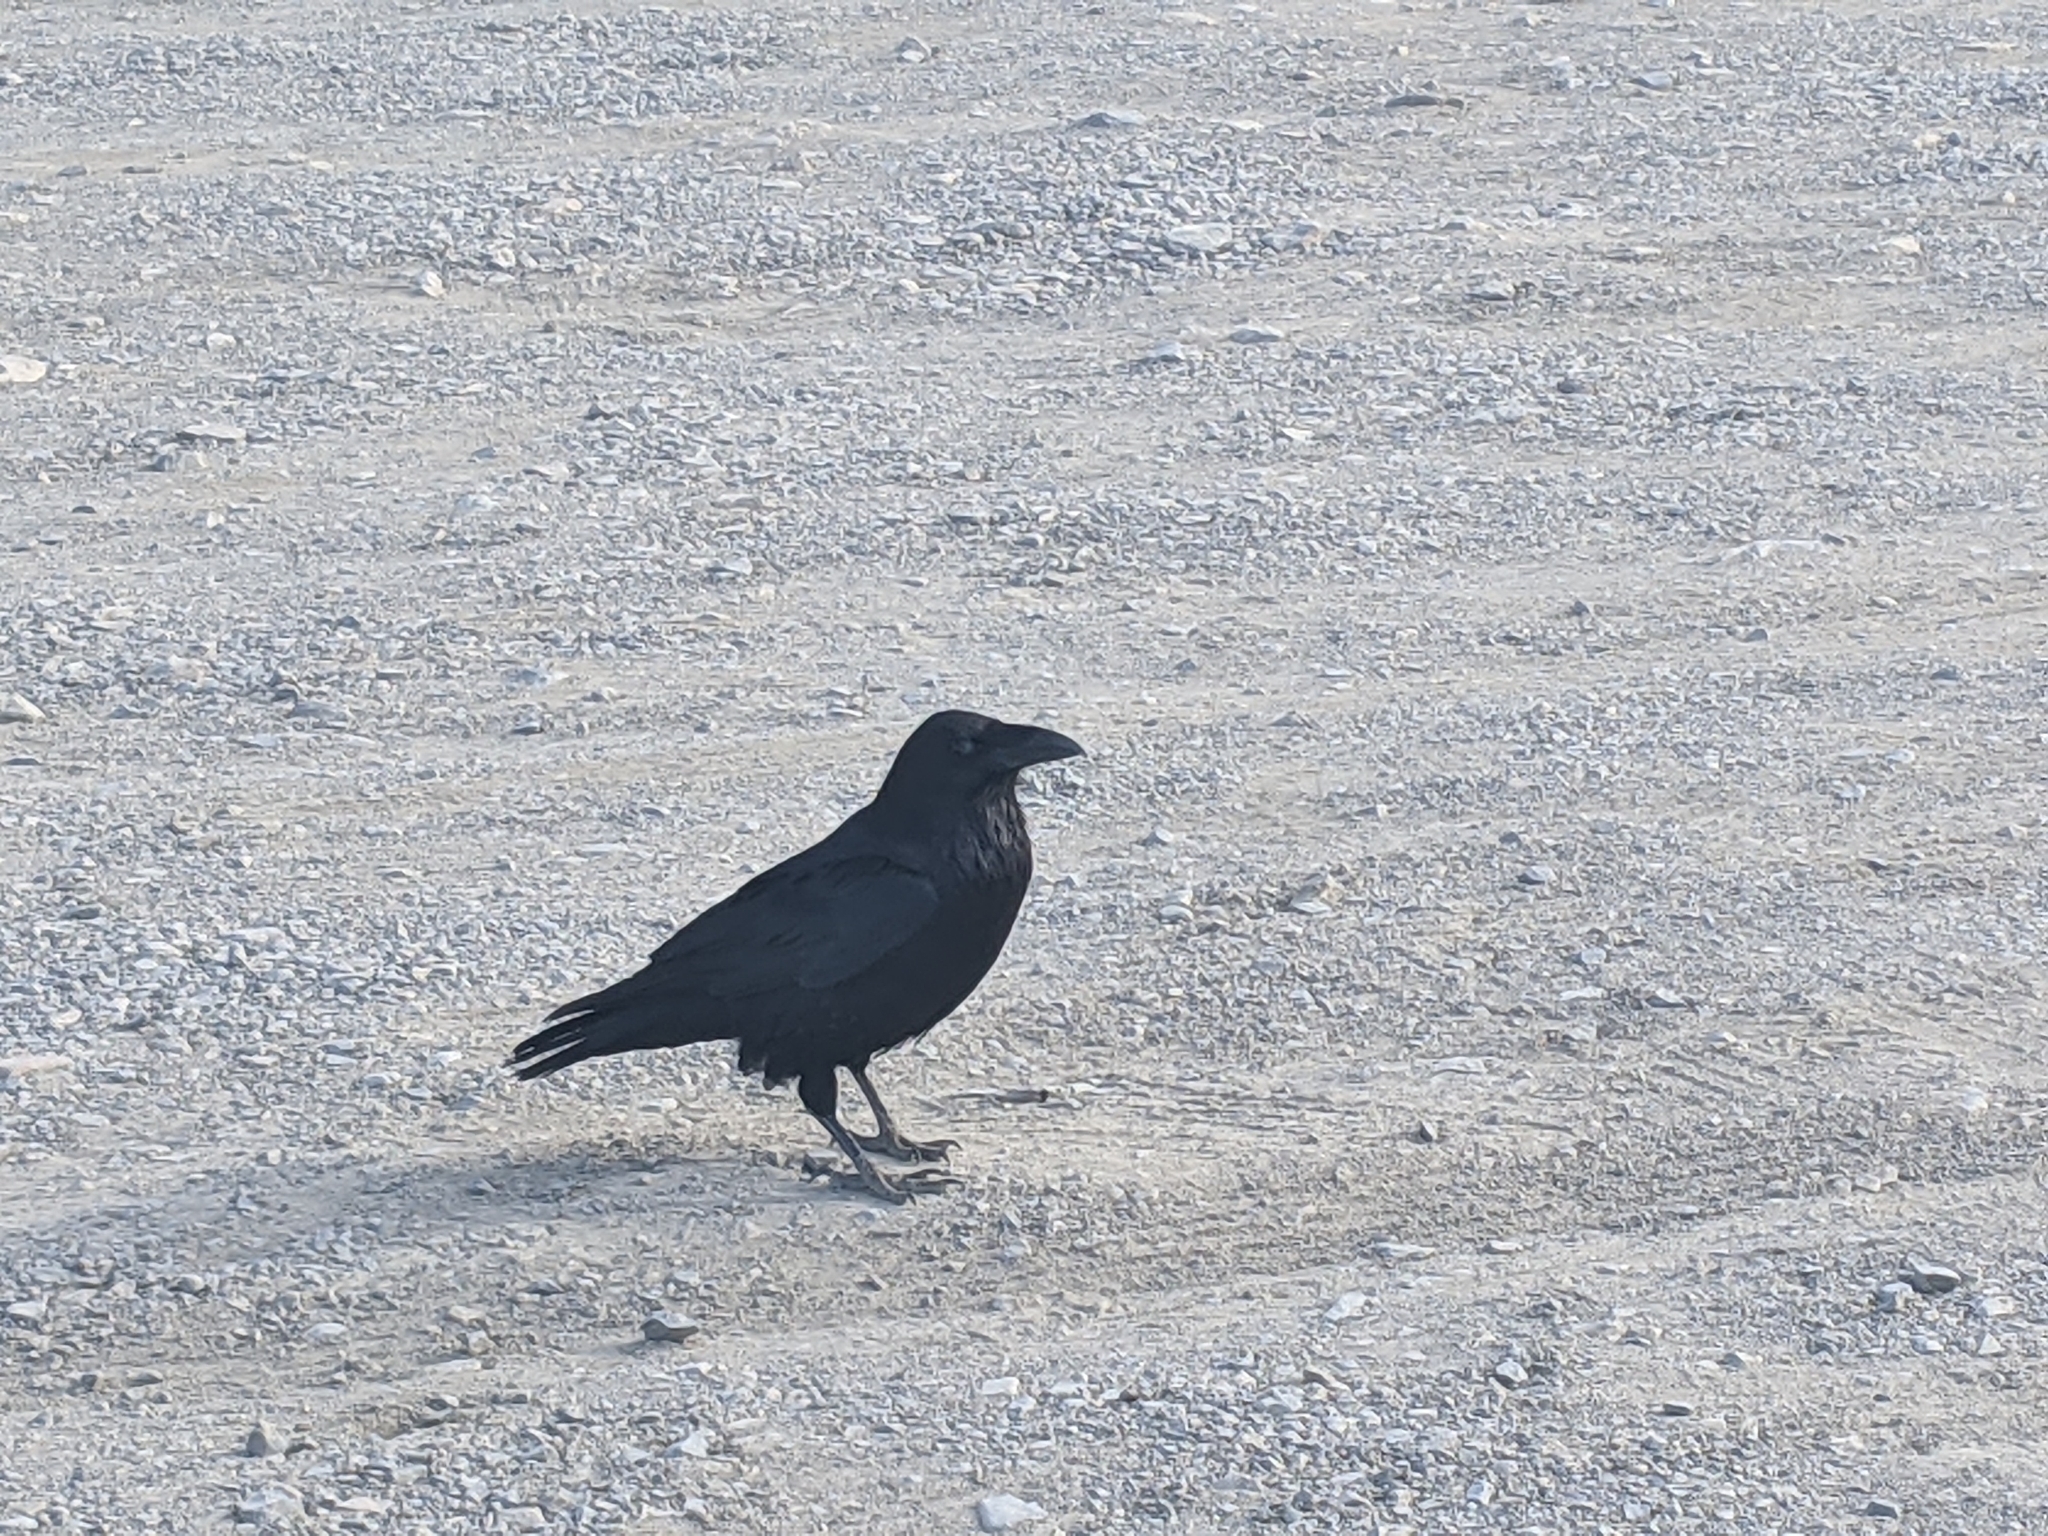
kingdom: Animalia
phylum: Chordata
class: Aves
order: Passeriformes
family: Corvidae
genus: Corvus
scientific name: Corvus corax
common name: Common raven
